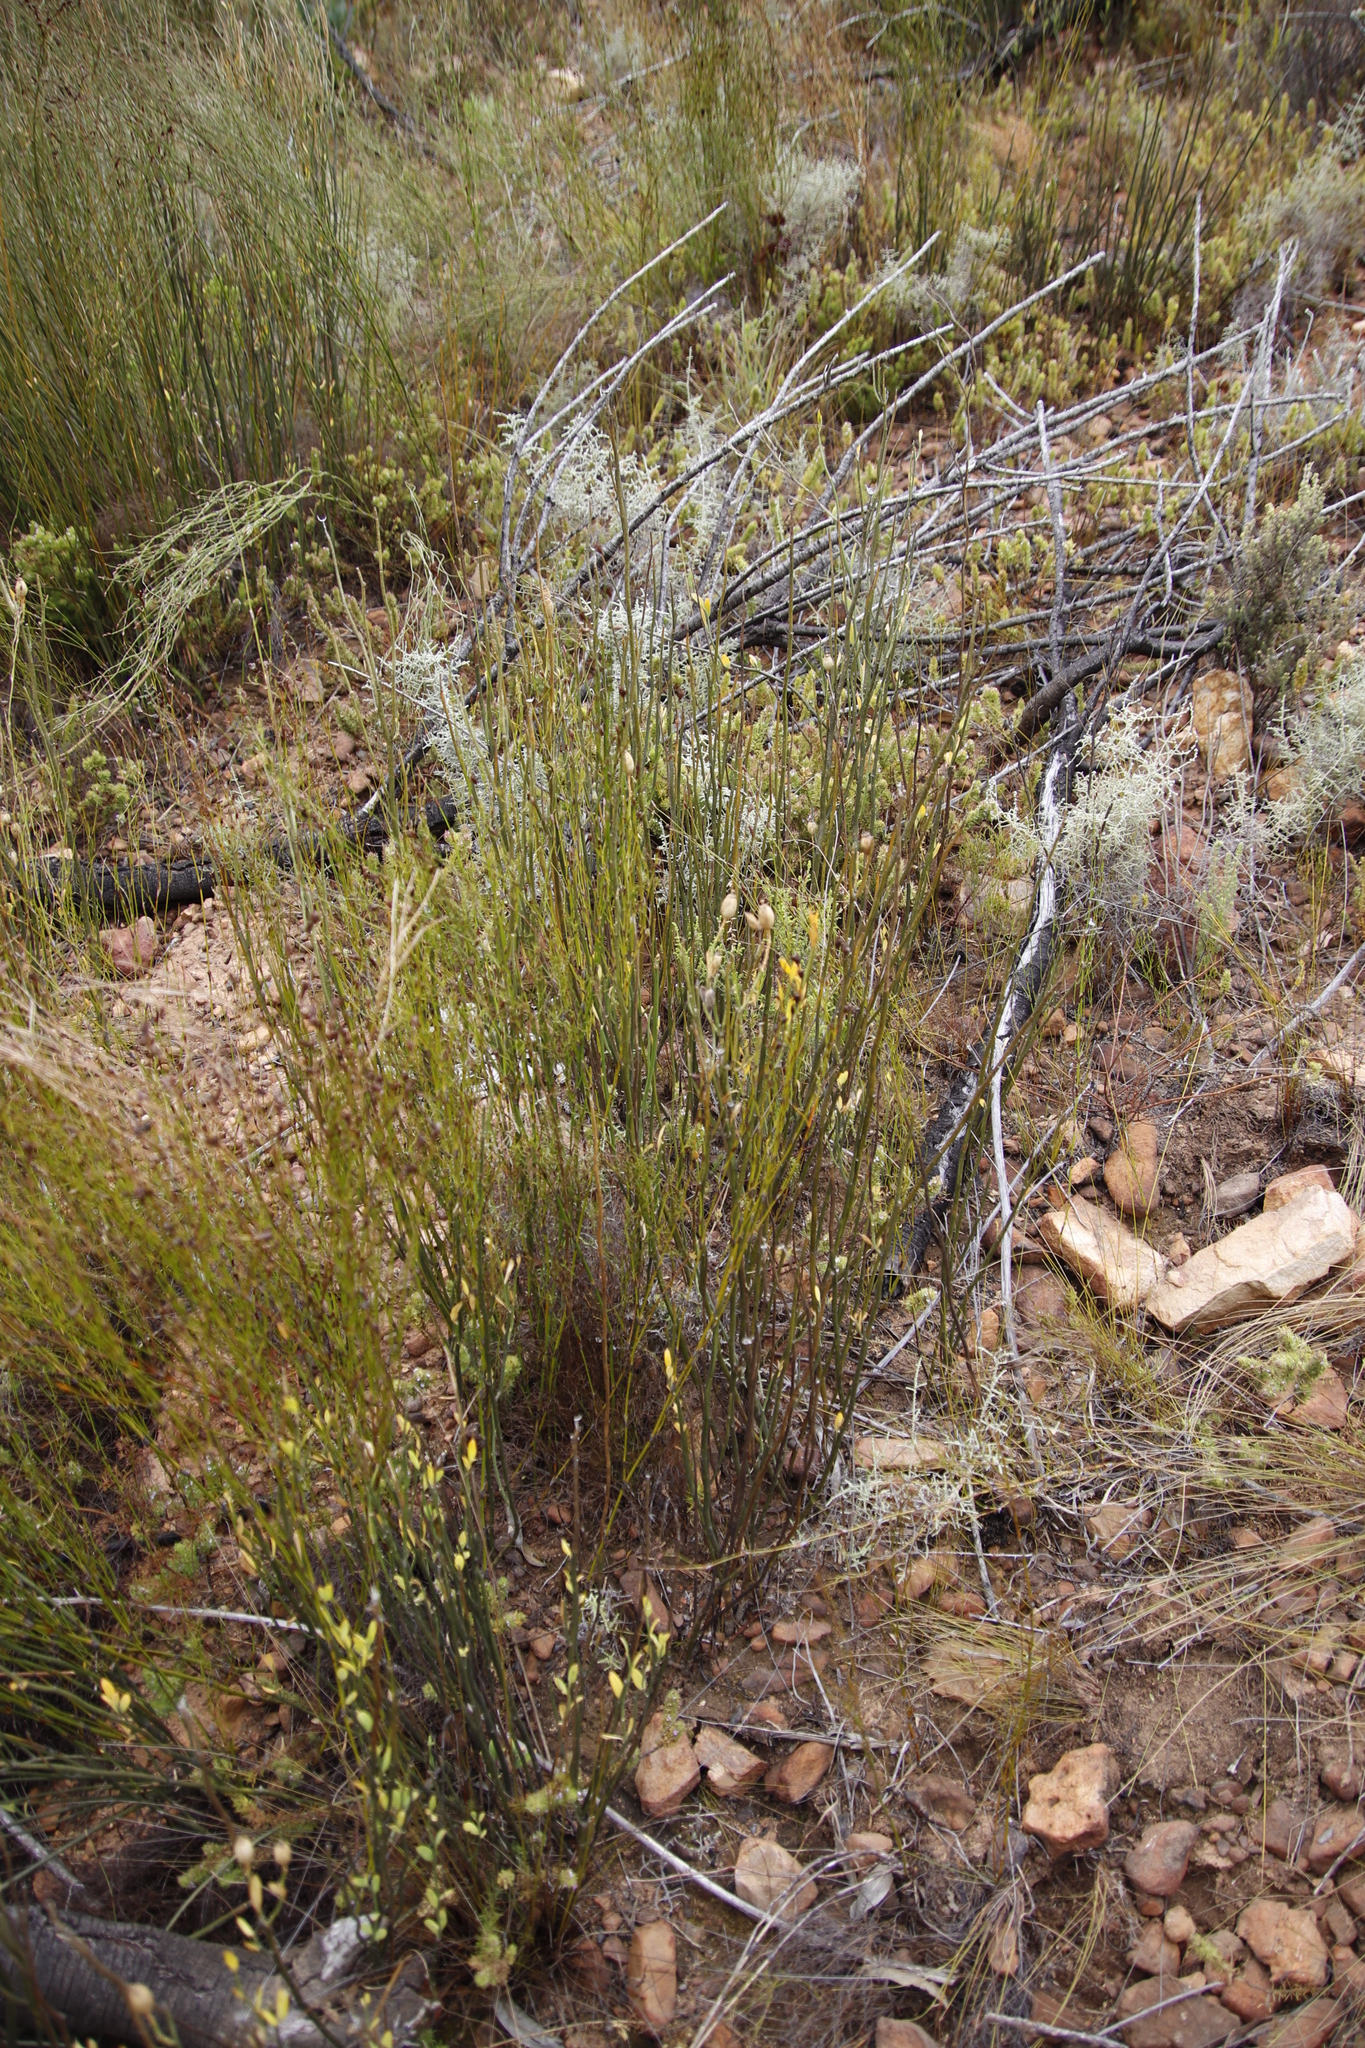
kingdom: Plantae
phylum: Tracheophyta
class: Magnoliopsida
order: Solanales
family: Montiniaceae
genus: Montinia
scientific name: Montinia caryophyllacea
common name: Wild clove-bush
